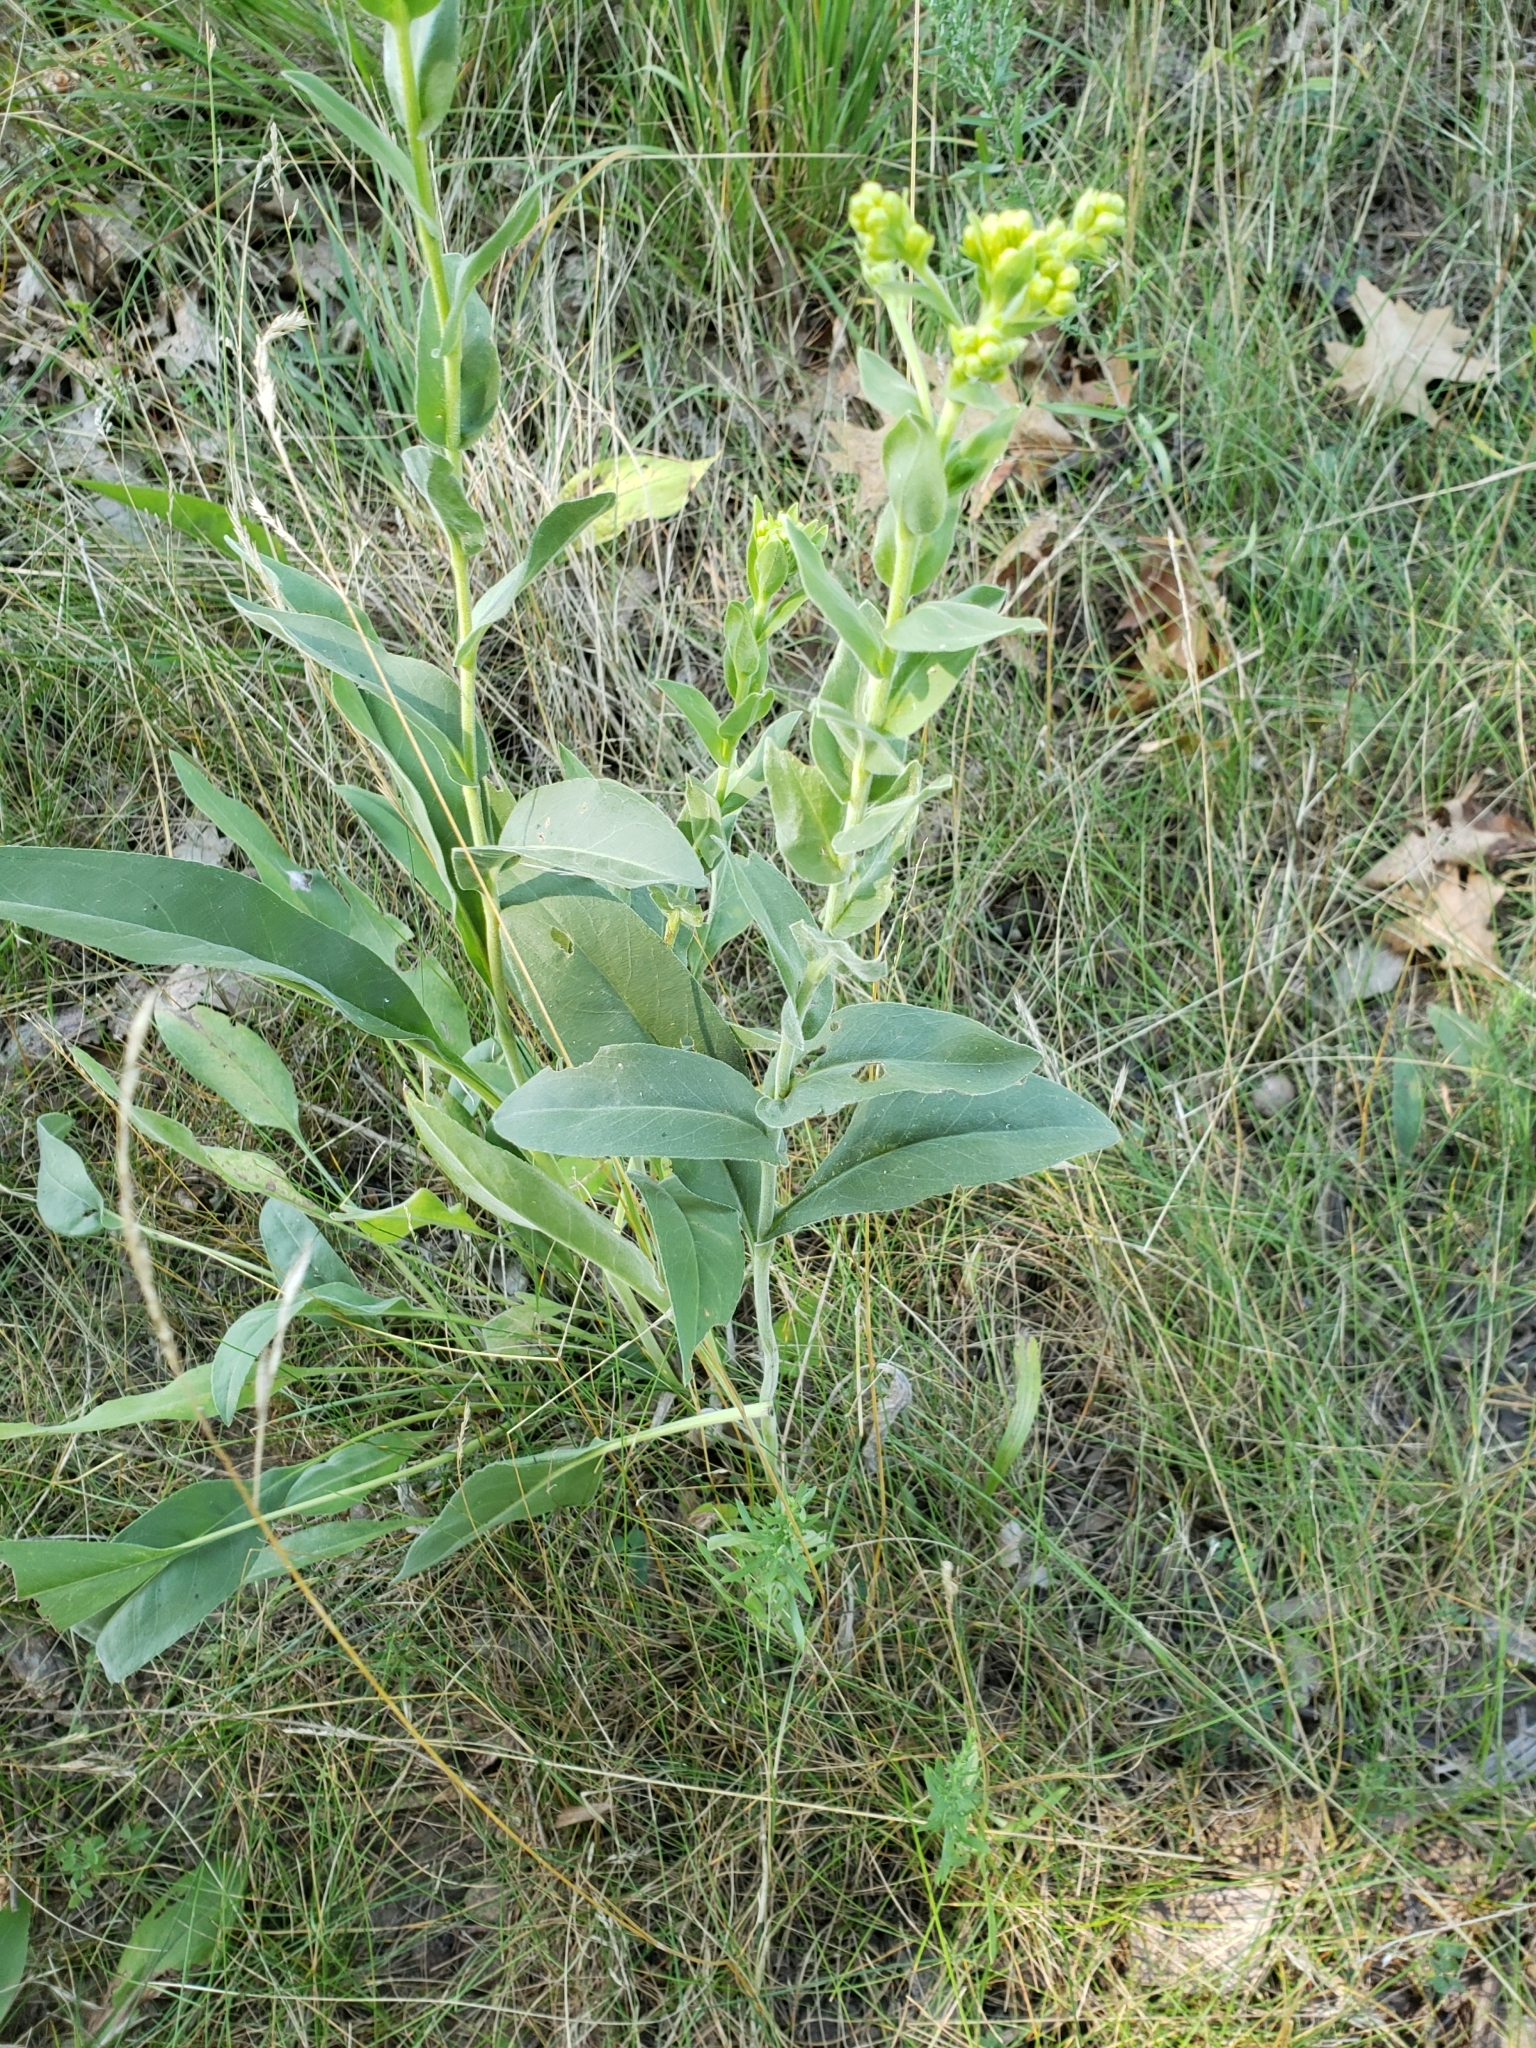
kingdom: Plantae
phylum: Tracheophyta
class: Magnoliopsida
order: Asterales
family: Asteraceae
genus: Solidago
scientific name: Solidago rigida
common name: Rigid goldenrod
